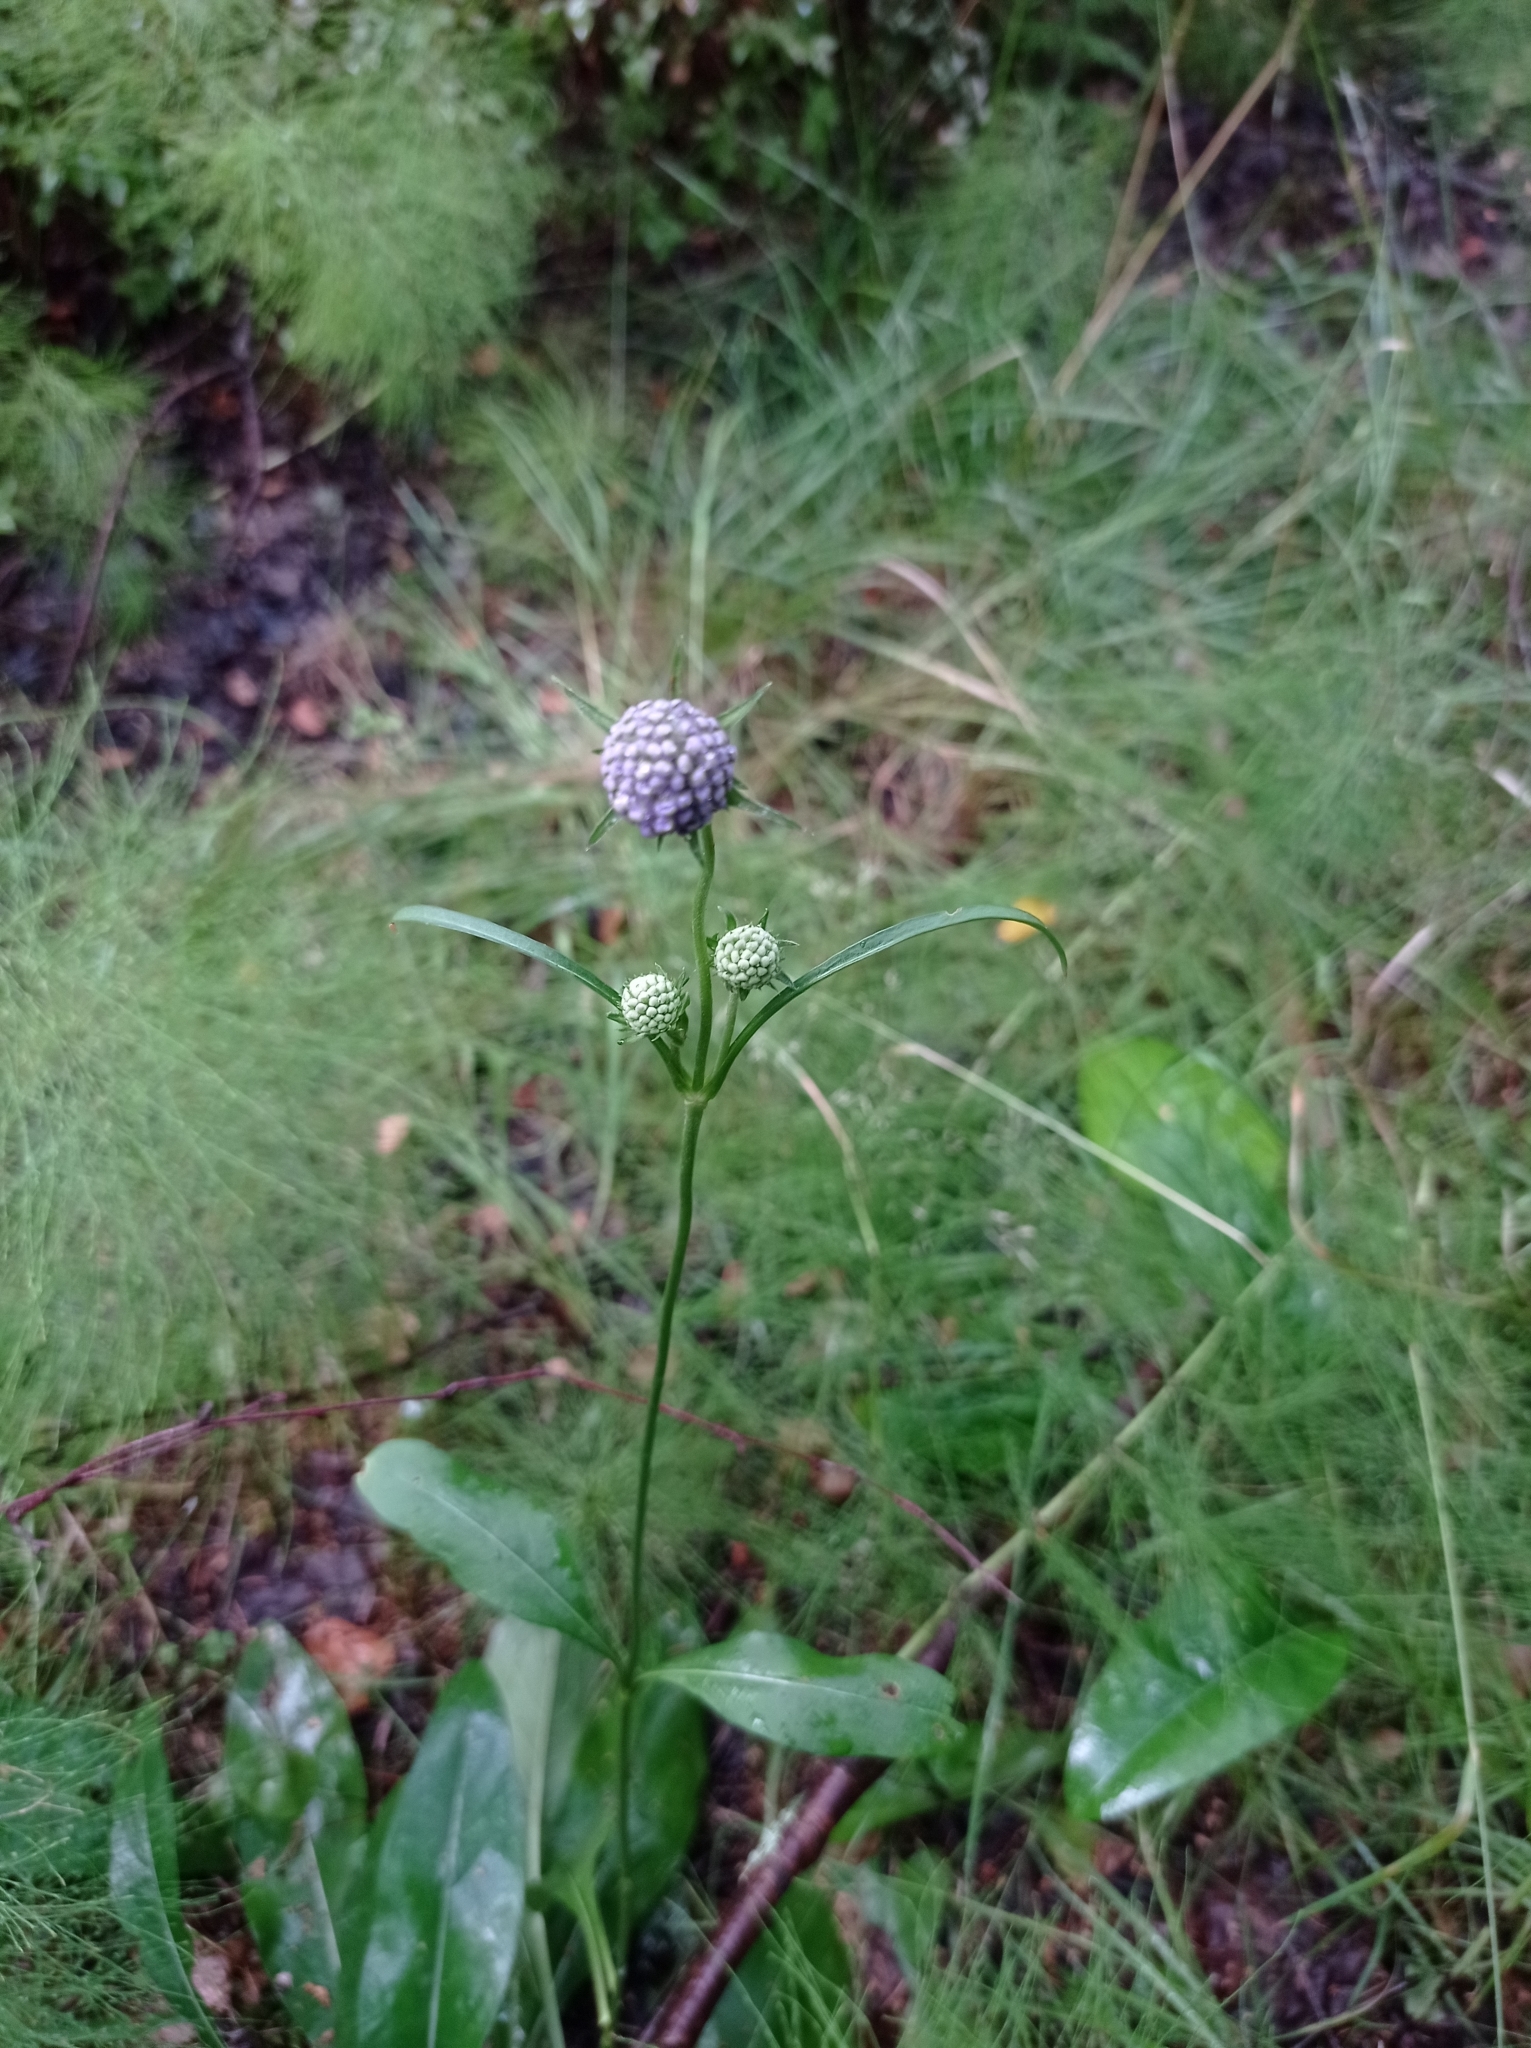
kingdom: Plantae
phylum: Tracheophyta
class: Magnoliopsida
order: Dipsacales
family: Caprifoliaceae
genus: Succisa
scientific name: Succisa pratensis
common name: Devil's-bit
